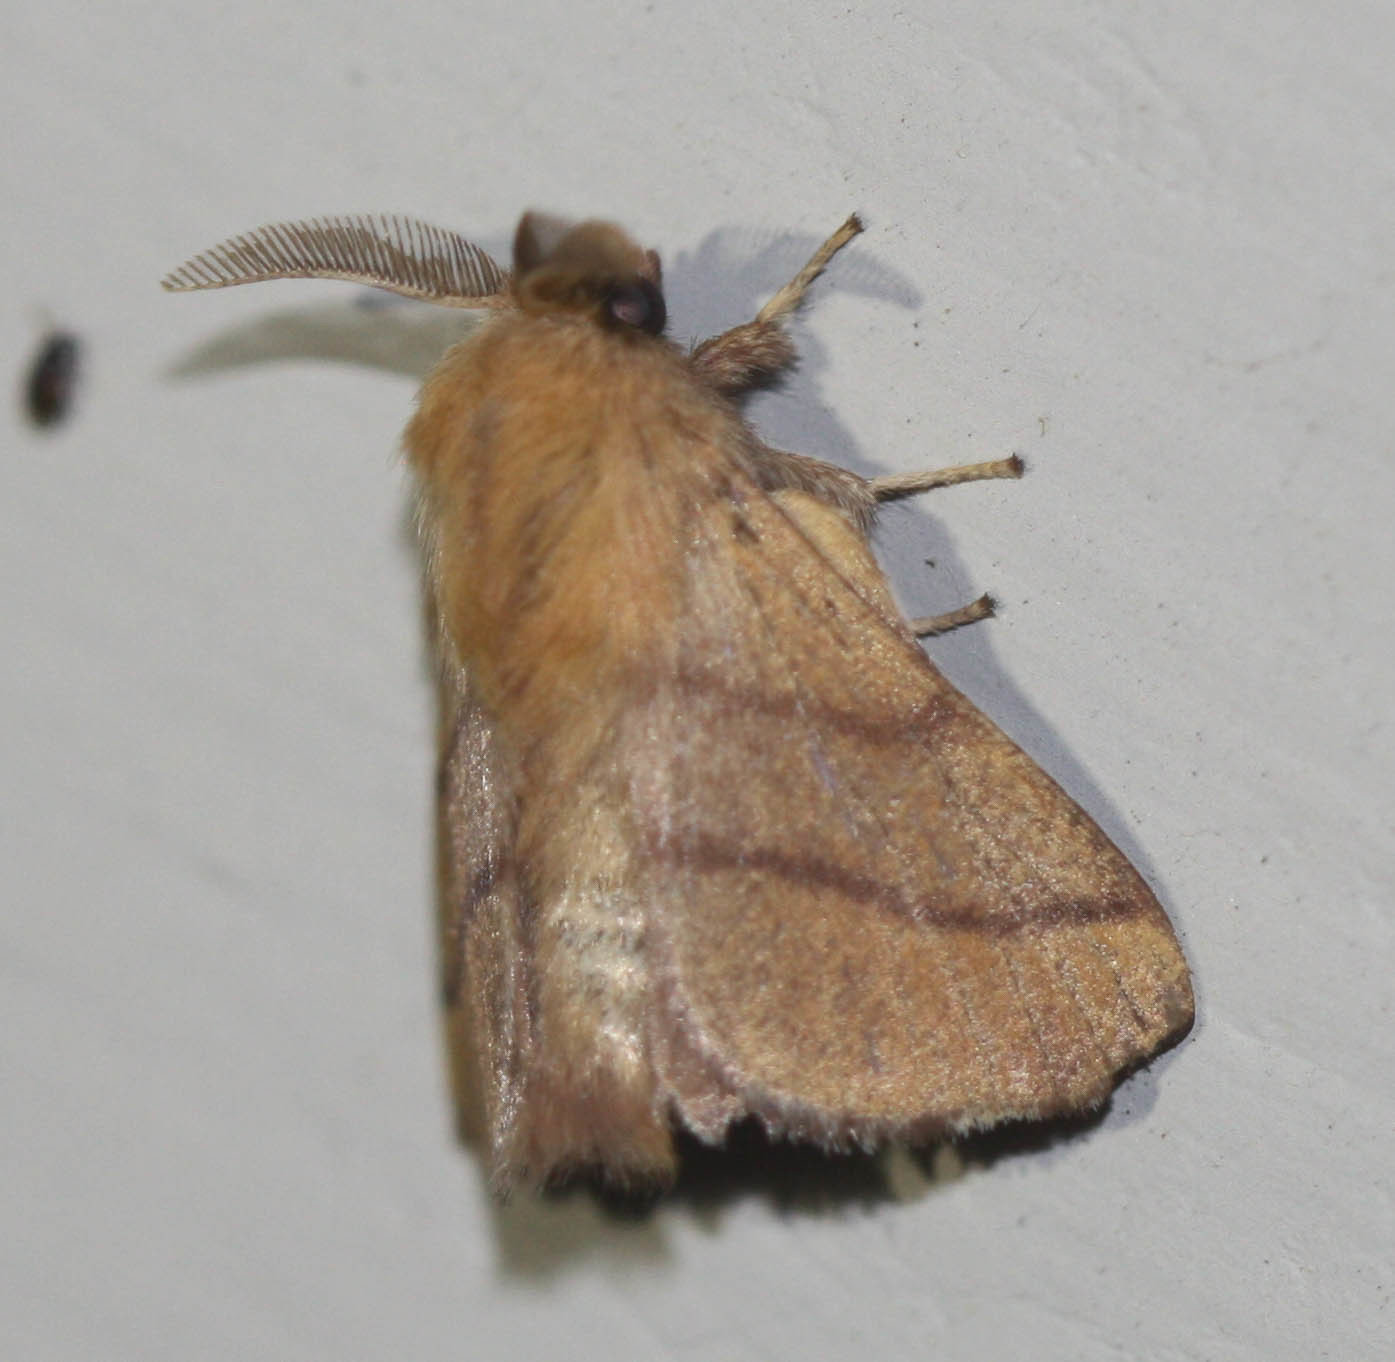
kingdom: Animalia
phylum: Arthropoda
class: Insecta
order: Lepidoptera
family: Lasiocampidae
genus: Malacosoma
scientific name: Malacosoma disstria
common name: Forest tent caterpillar
